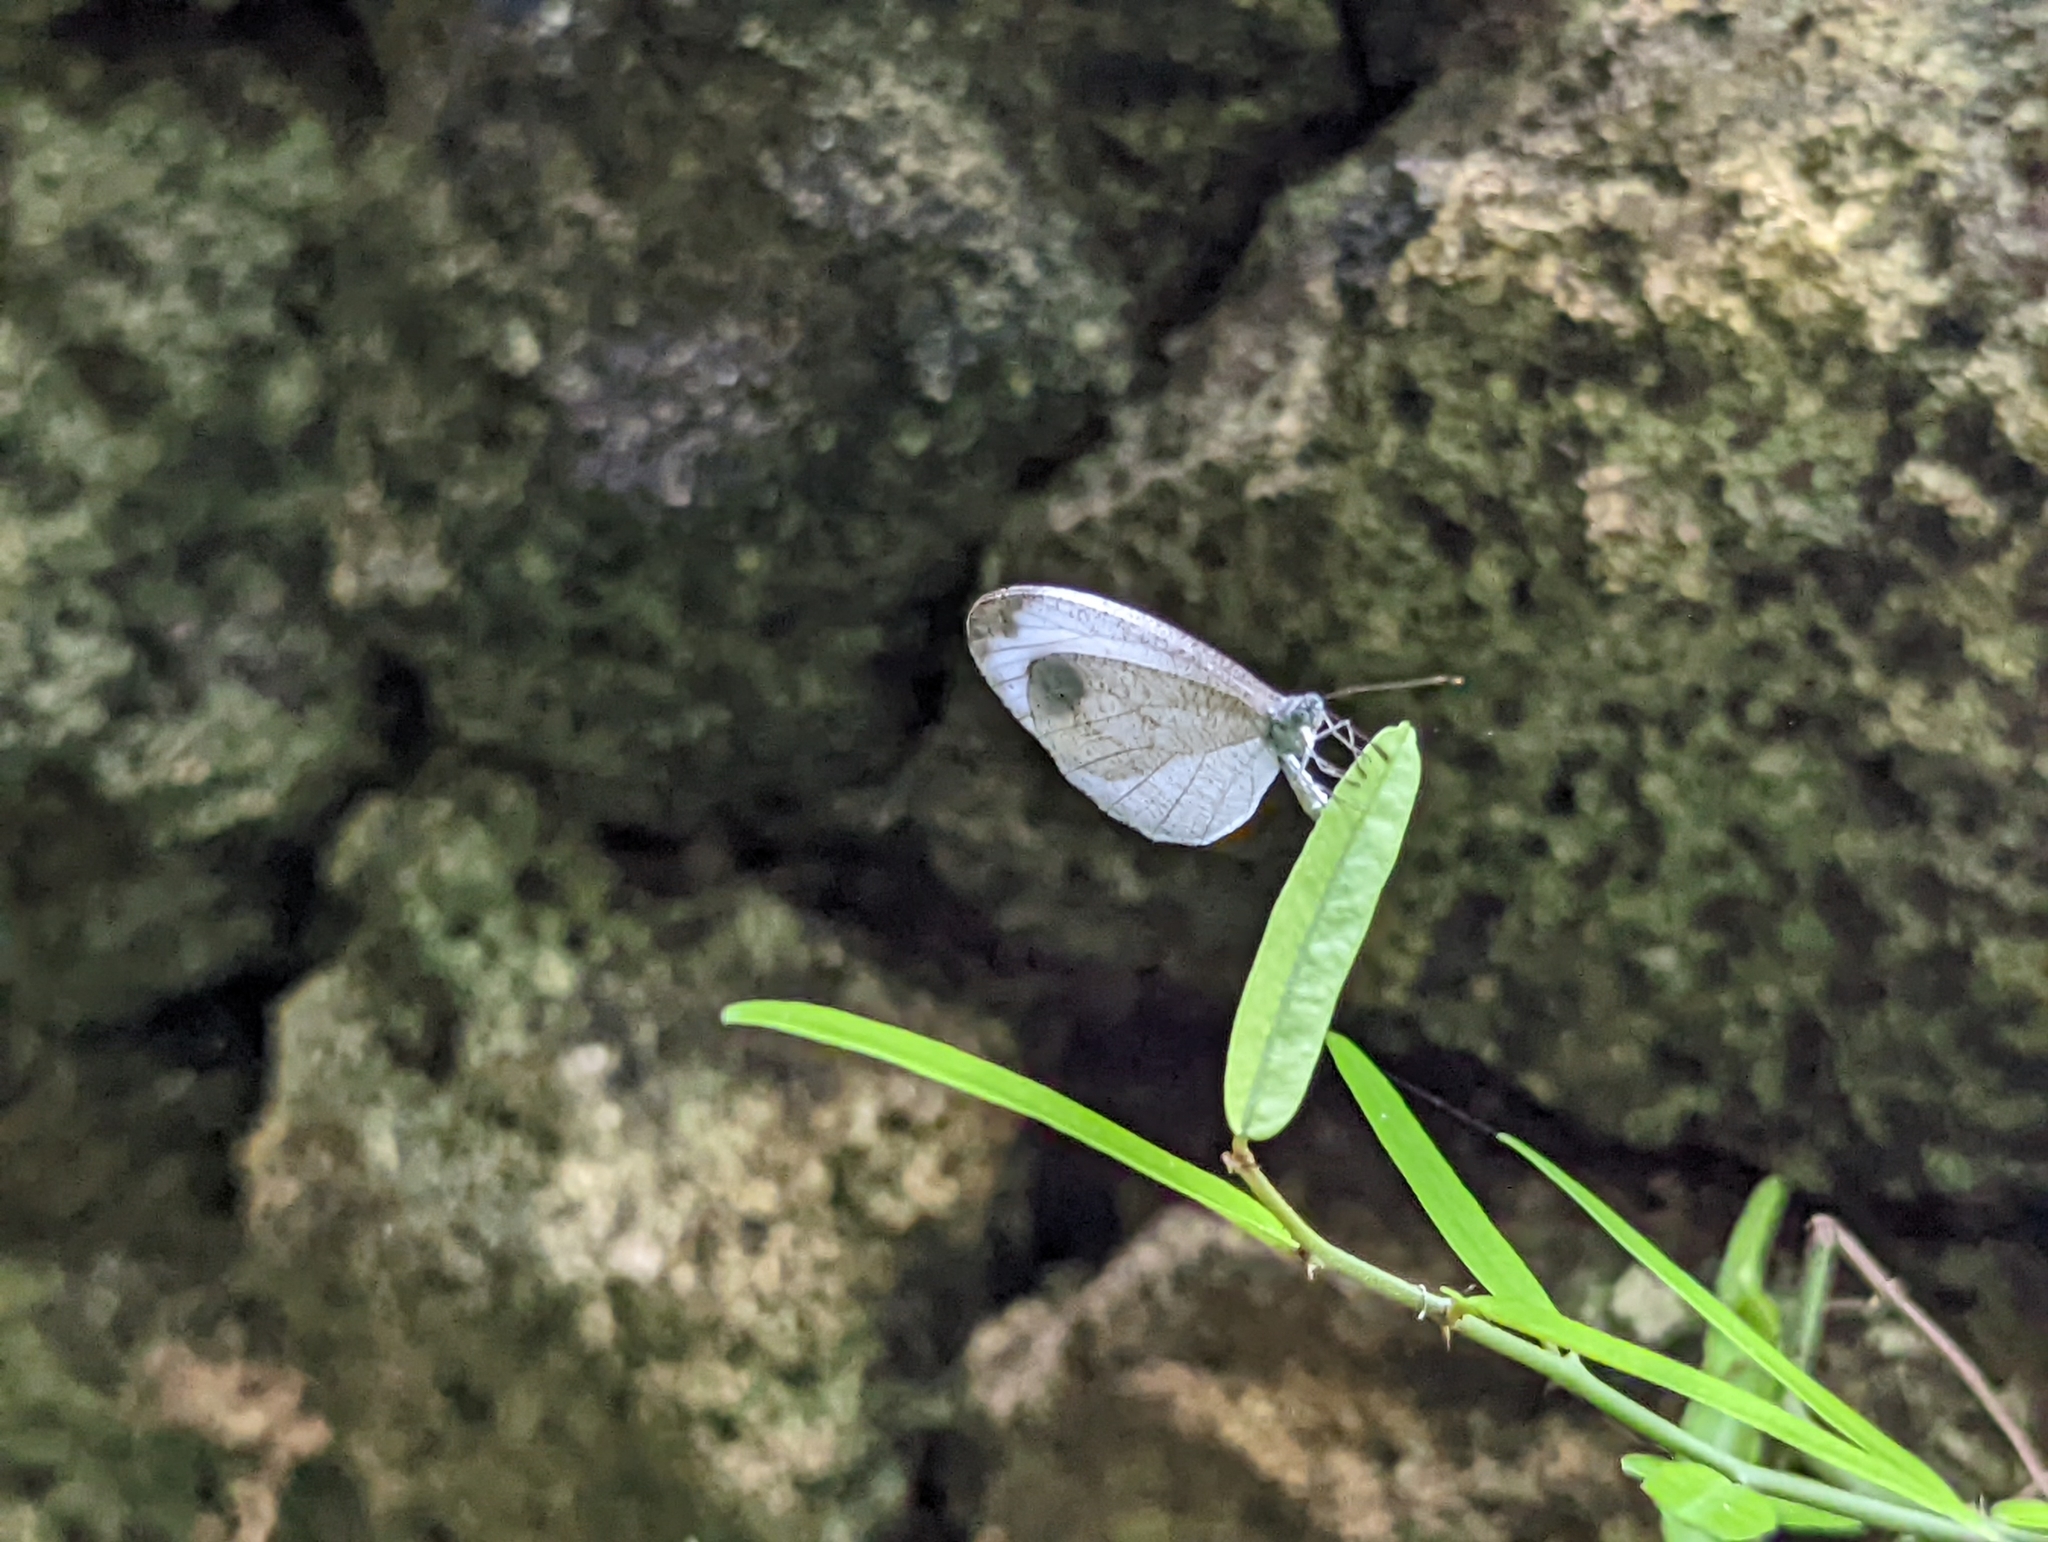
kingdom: Animalia
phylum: Arthropoda
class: Insecta
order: Lepidoptera
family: Pieridae
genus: Leptosia
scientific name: Leptosia nina
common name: Psyche
